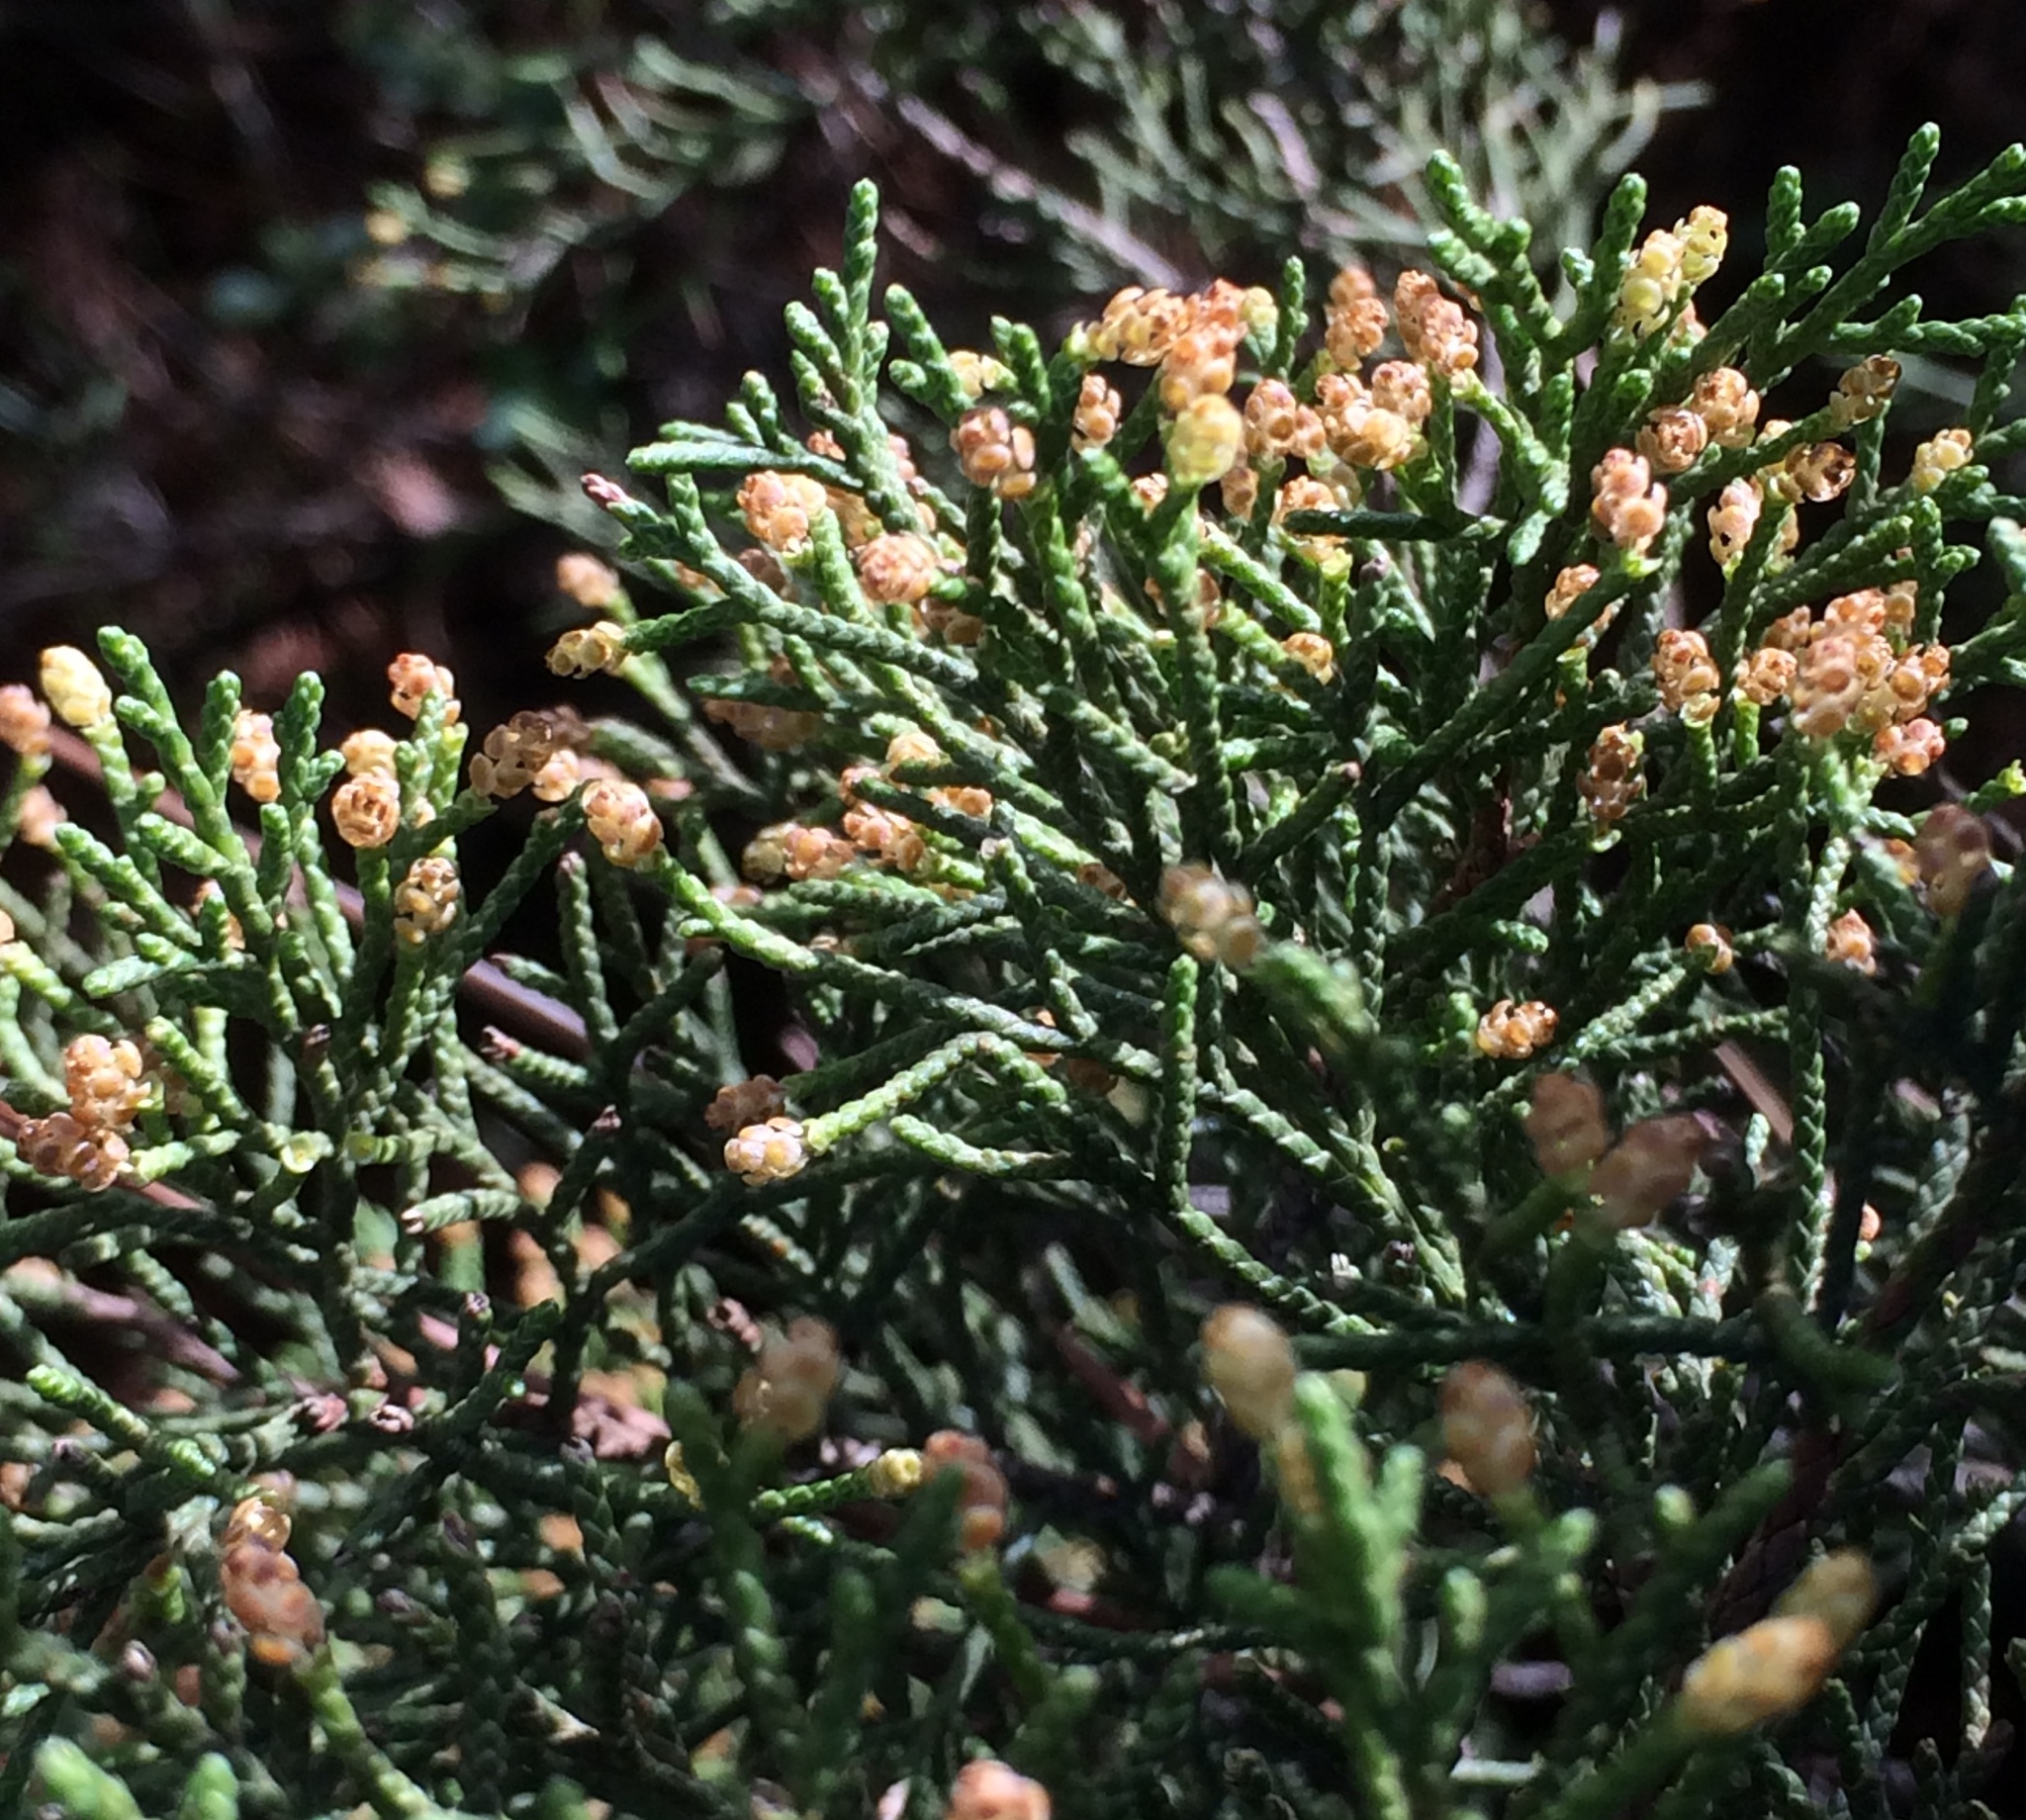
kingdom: Plantae
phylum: Tracheophyta
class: Pinopsida
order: Pinales
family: Cupressaceae
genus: Juniperus
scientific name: Juniperus phoenicea
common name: Phoenician juniper
